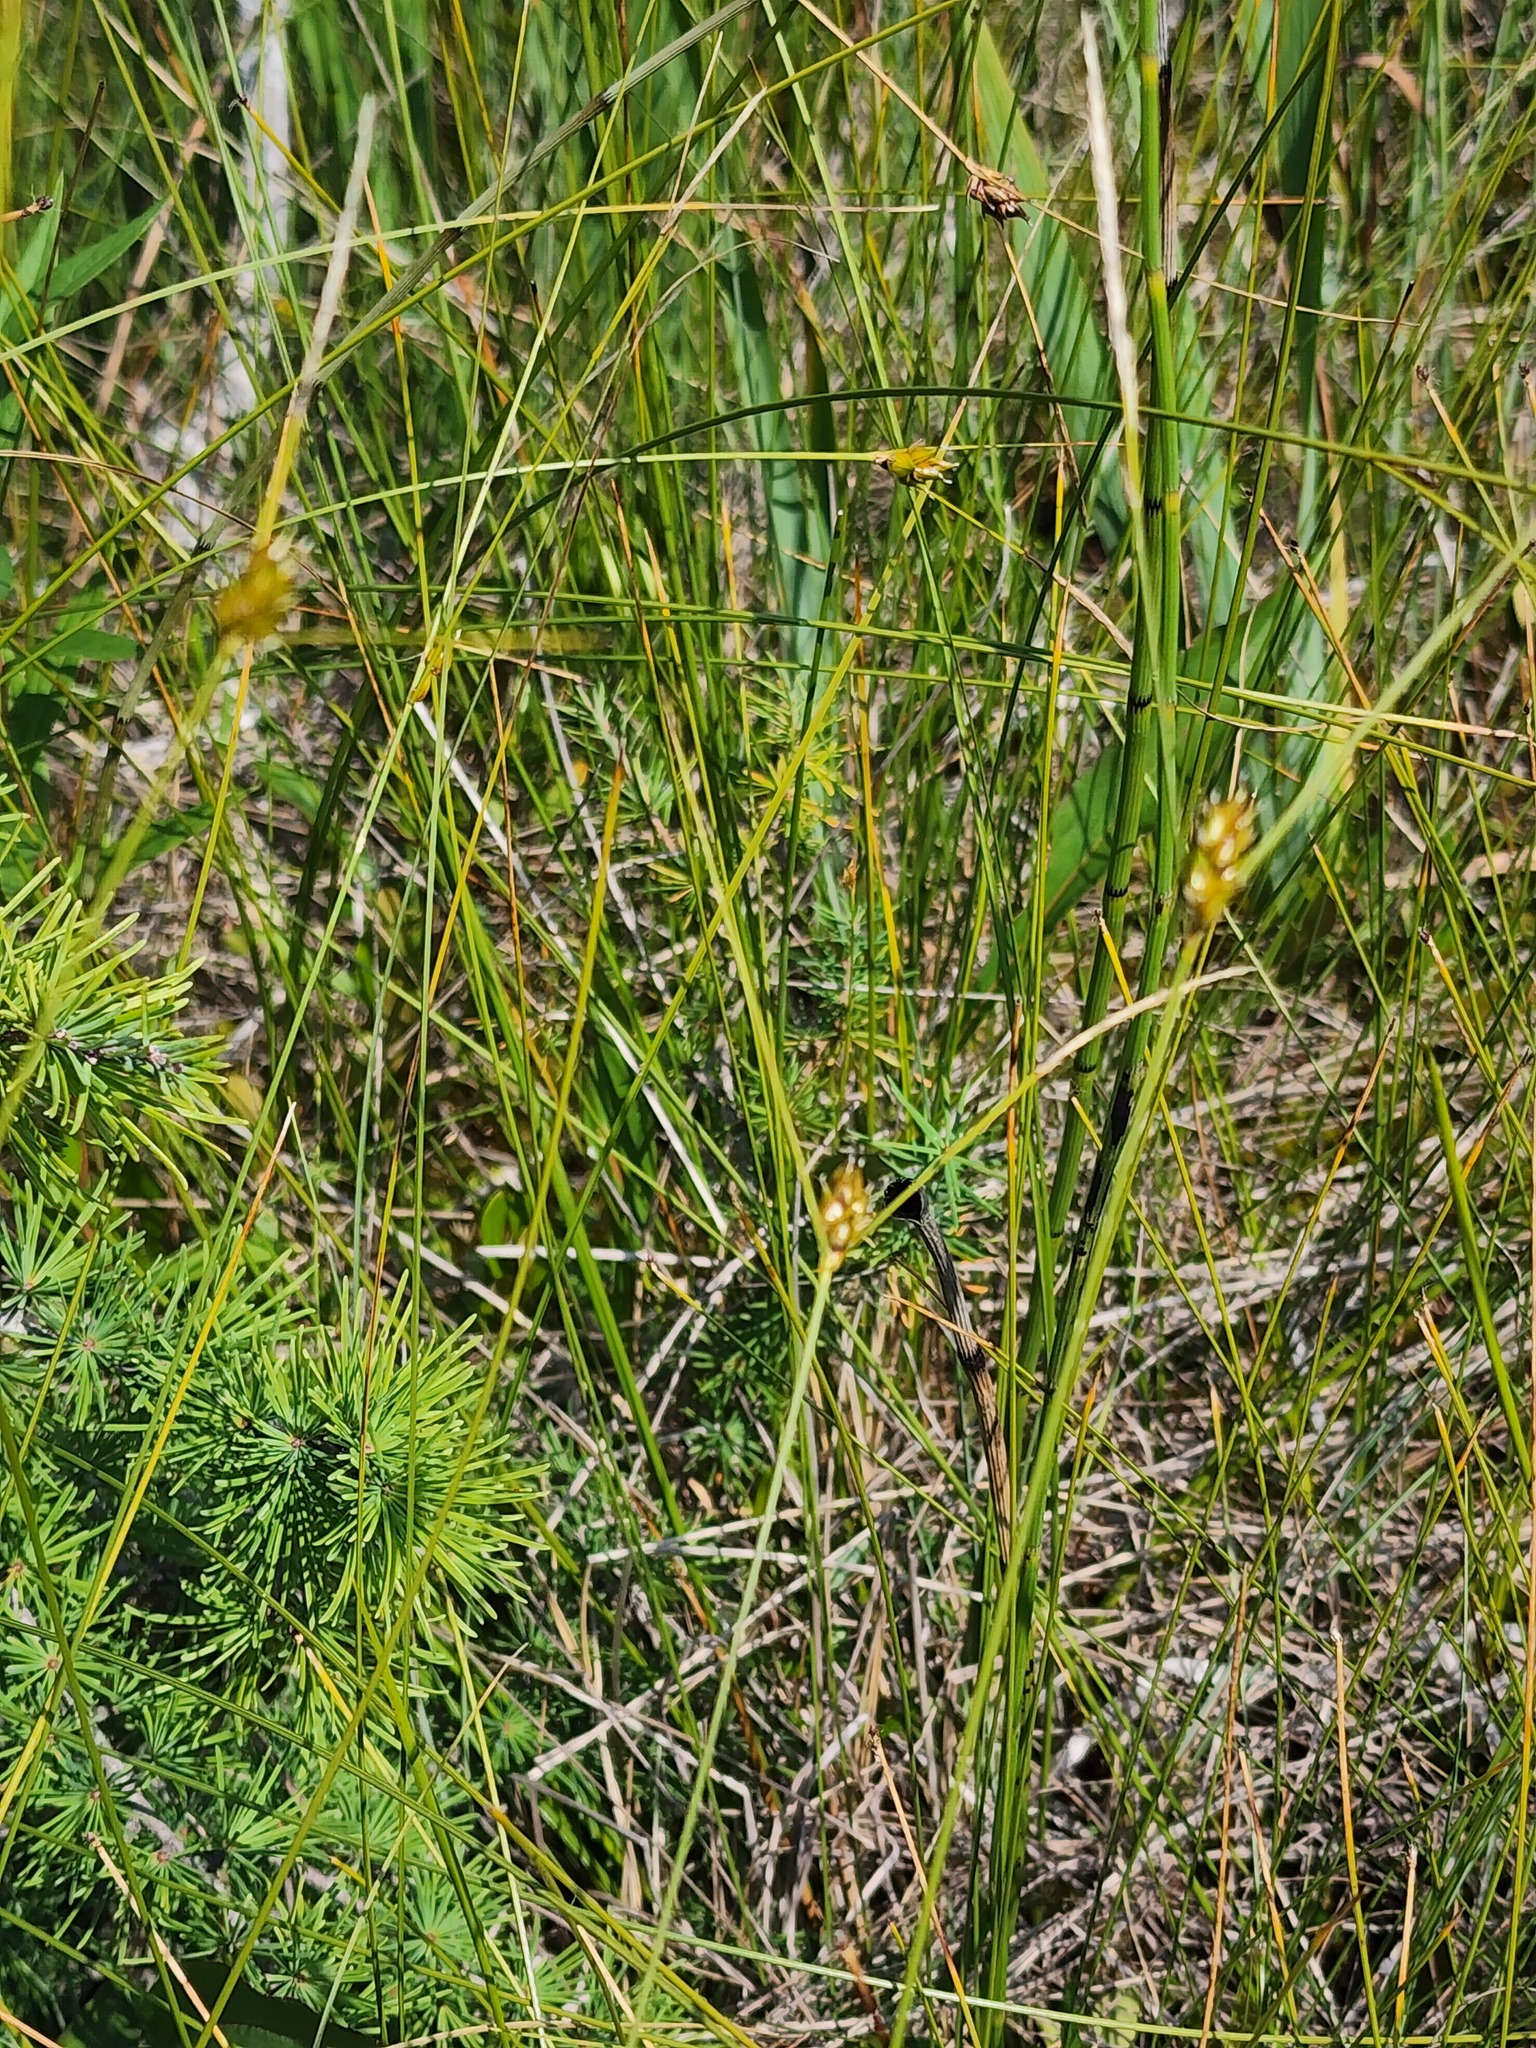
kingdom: Plantae
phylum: Tracheophyta
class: Liliopsida
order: Poales
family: Cyperaceae
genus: Carex
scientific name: Carex oligosperma
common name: Few-seed sedge
